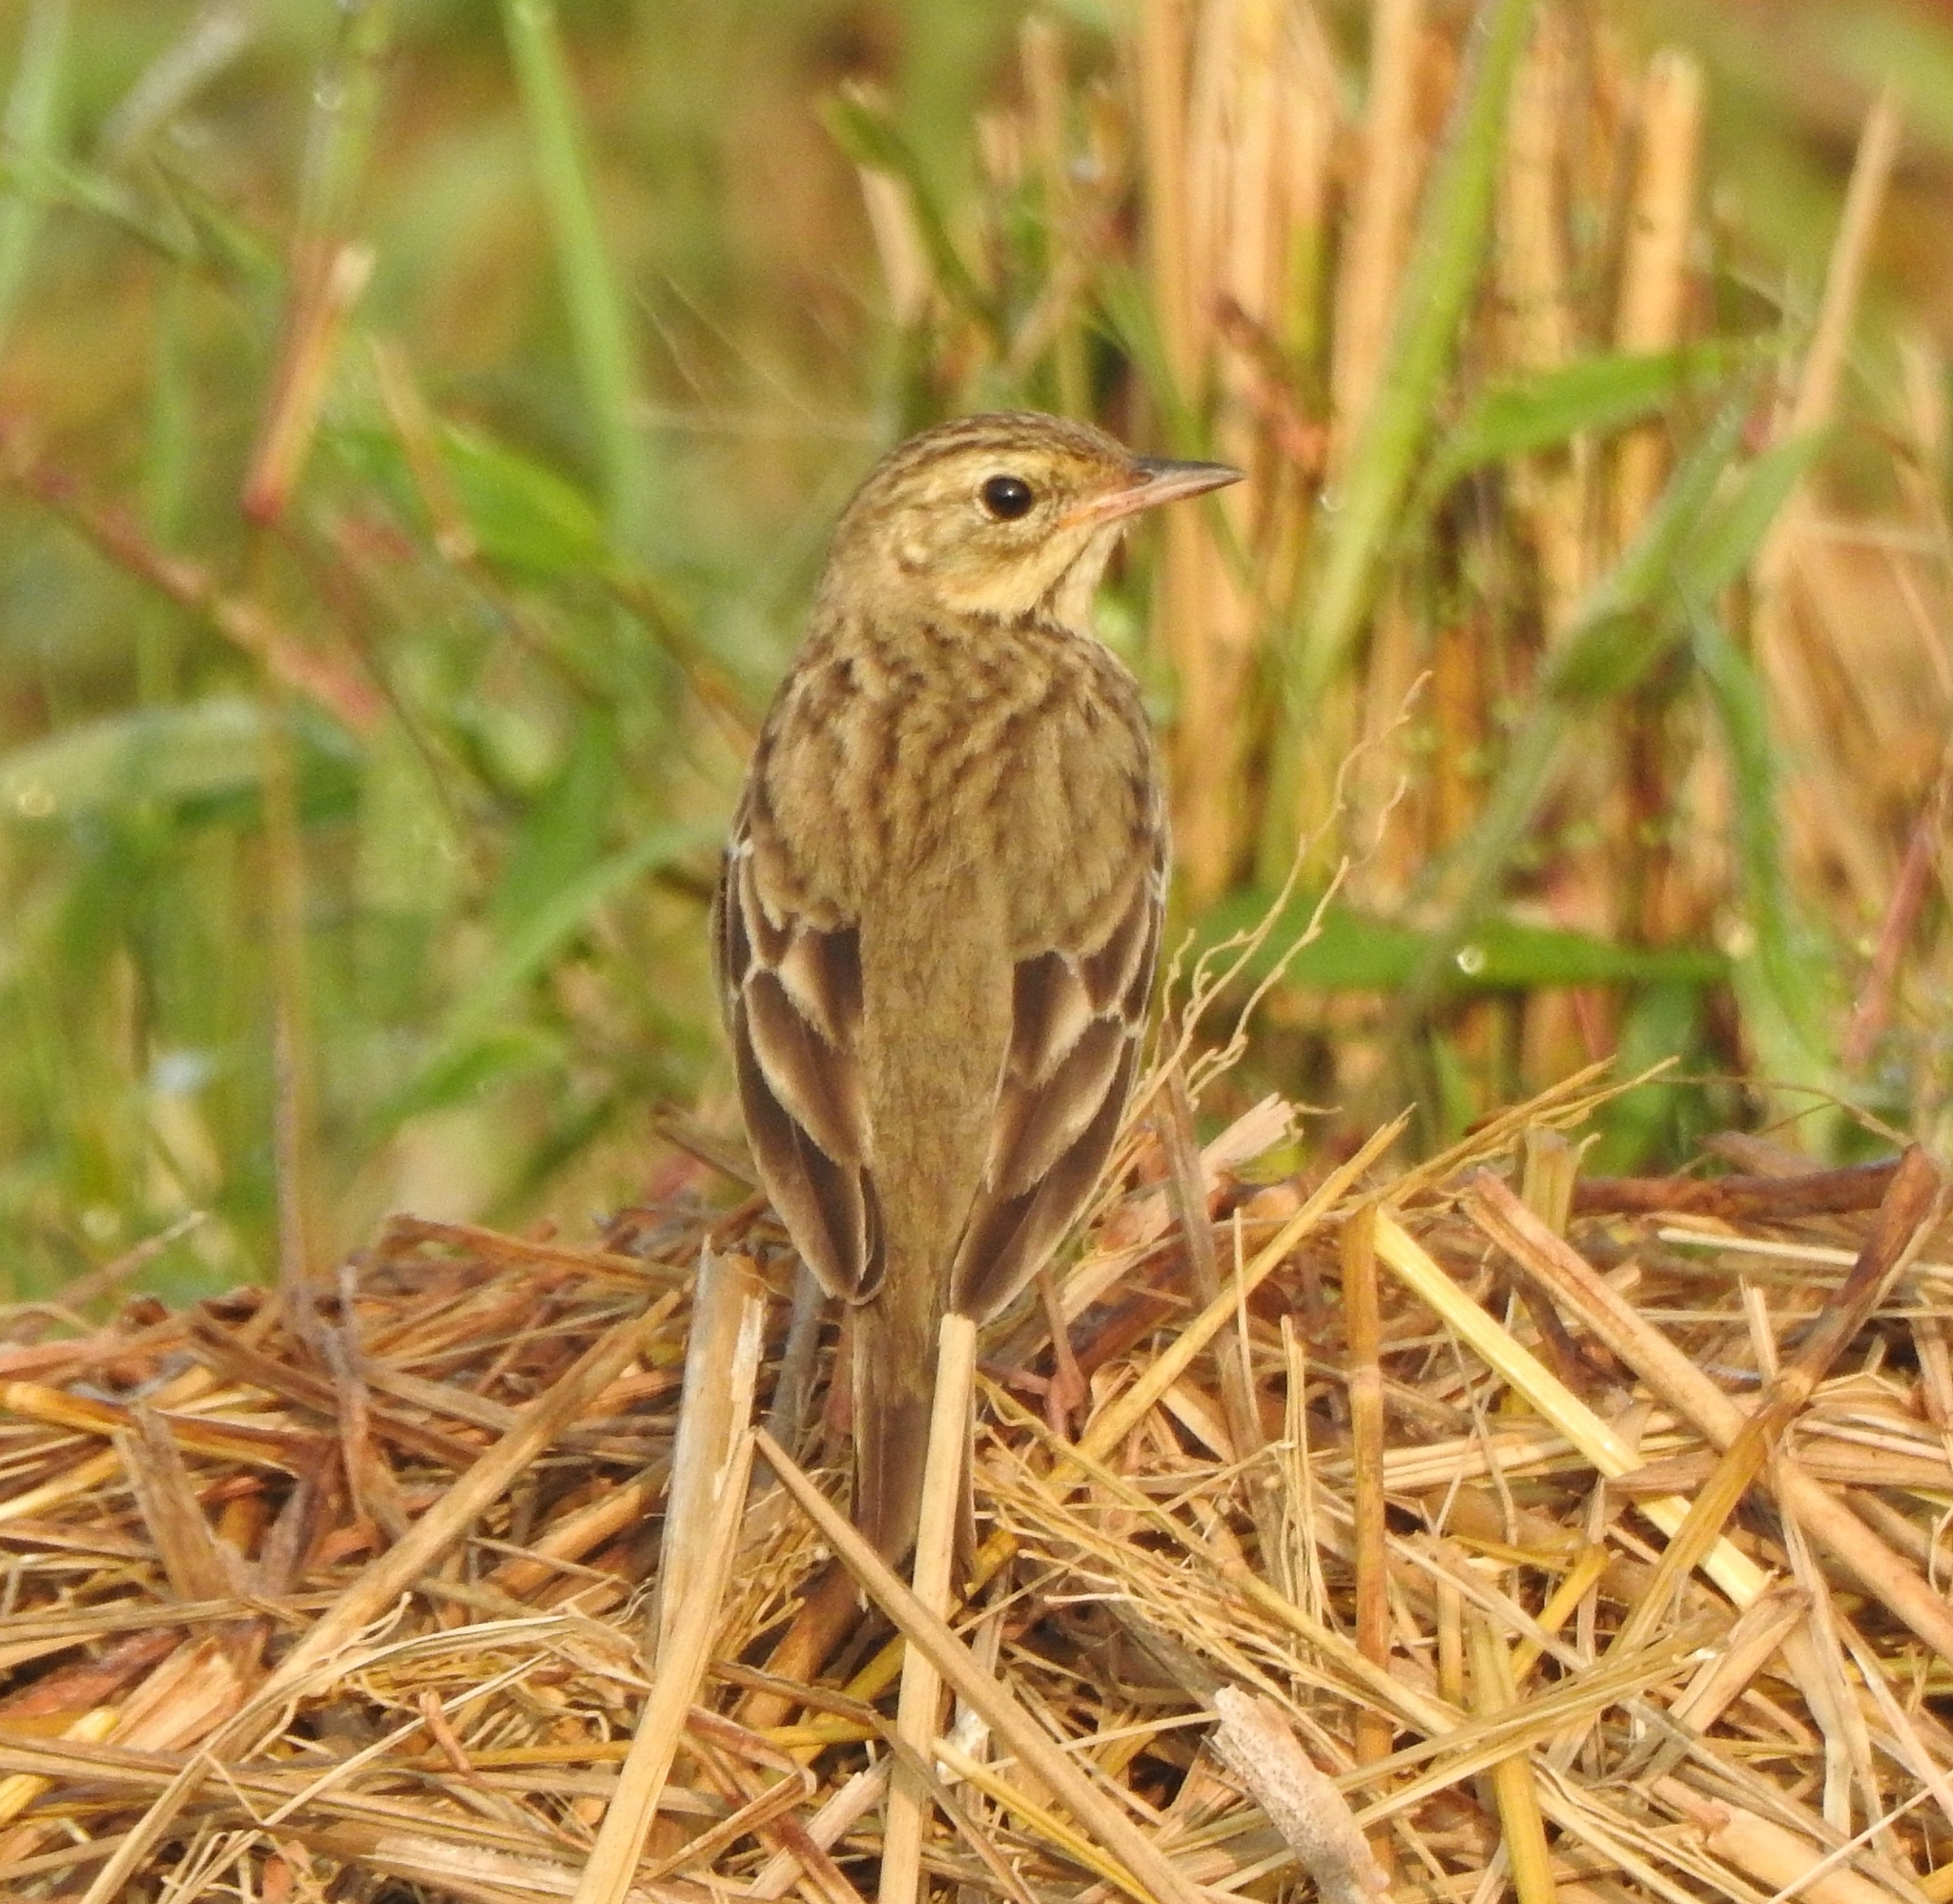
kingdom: Animalia
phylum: Chordata
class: Aves
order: Passeriformes
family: Motacillidae
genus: Anthus
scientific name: Anthus trivialis
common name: Tree pipit
